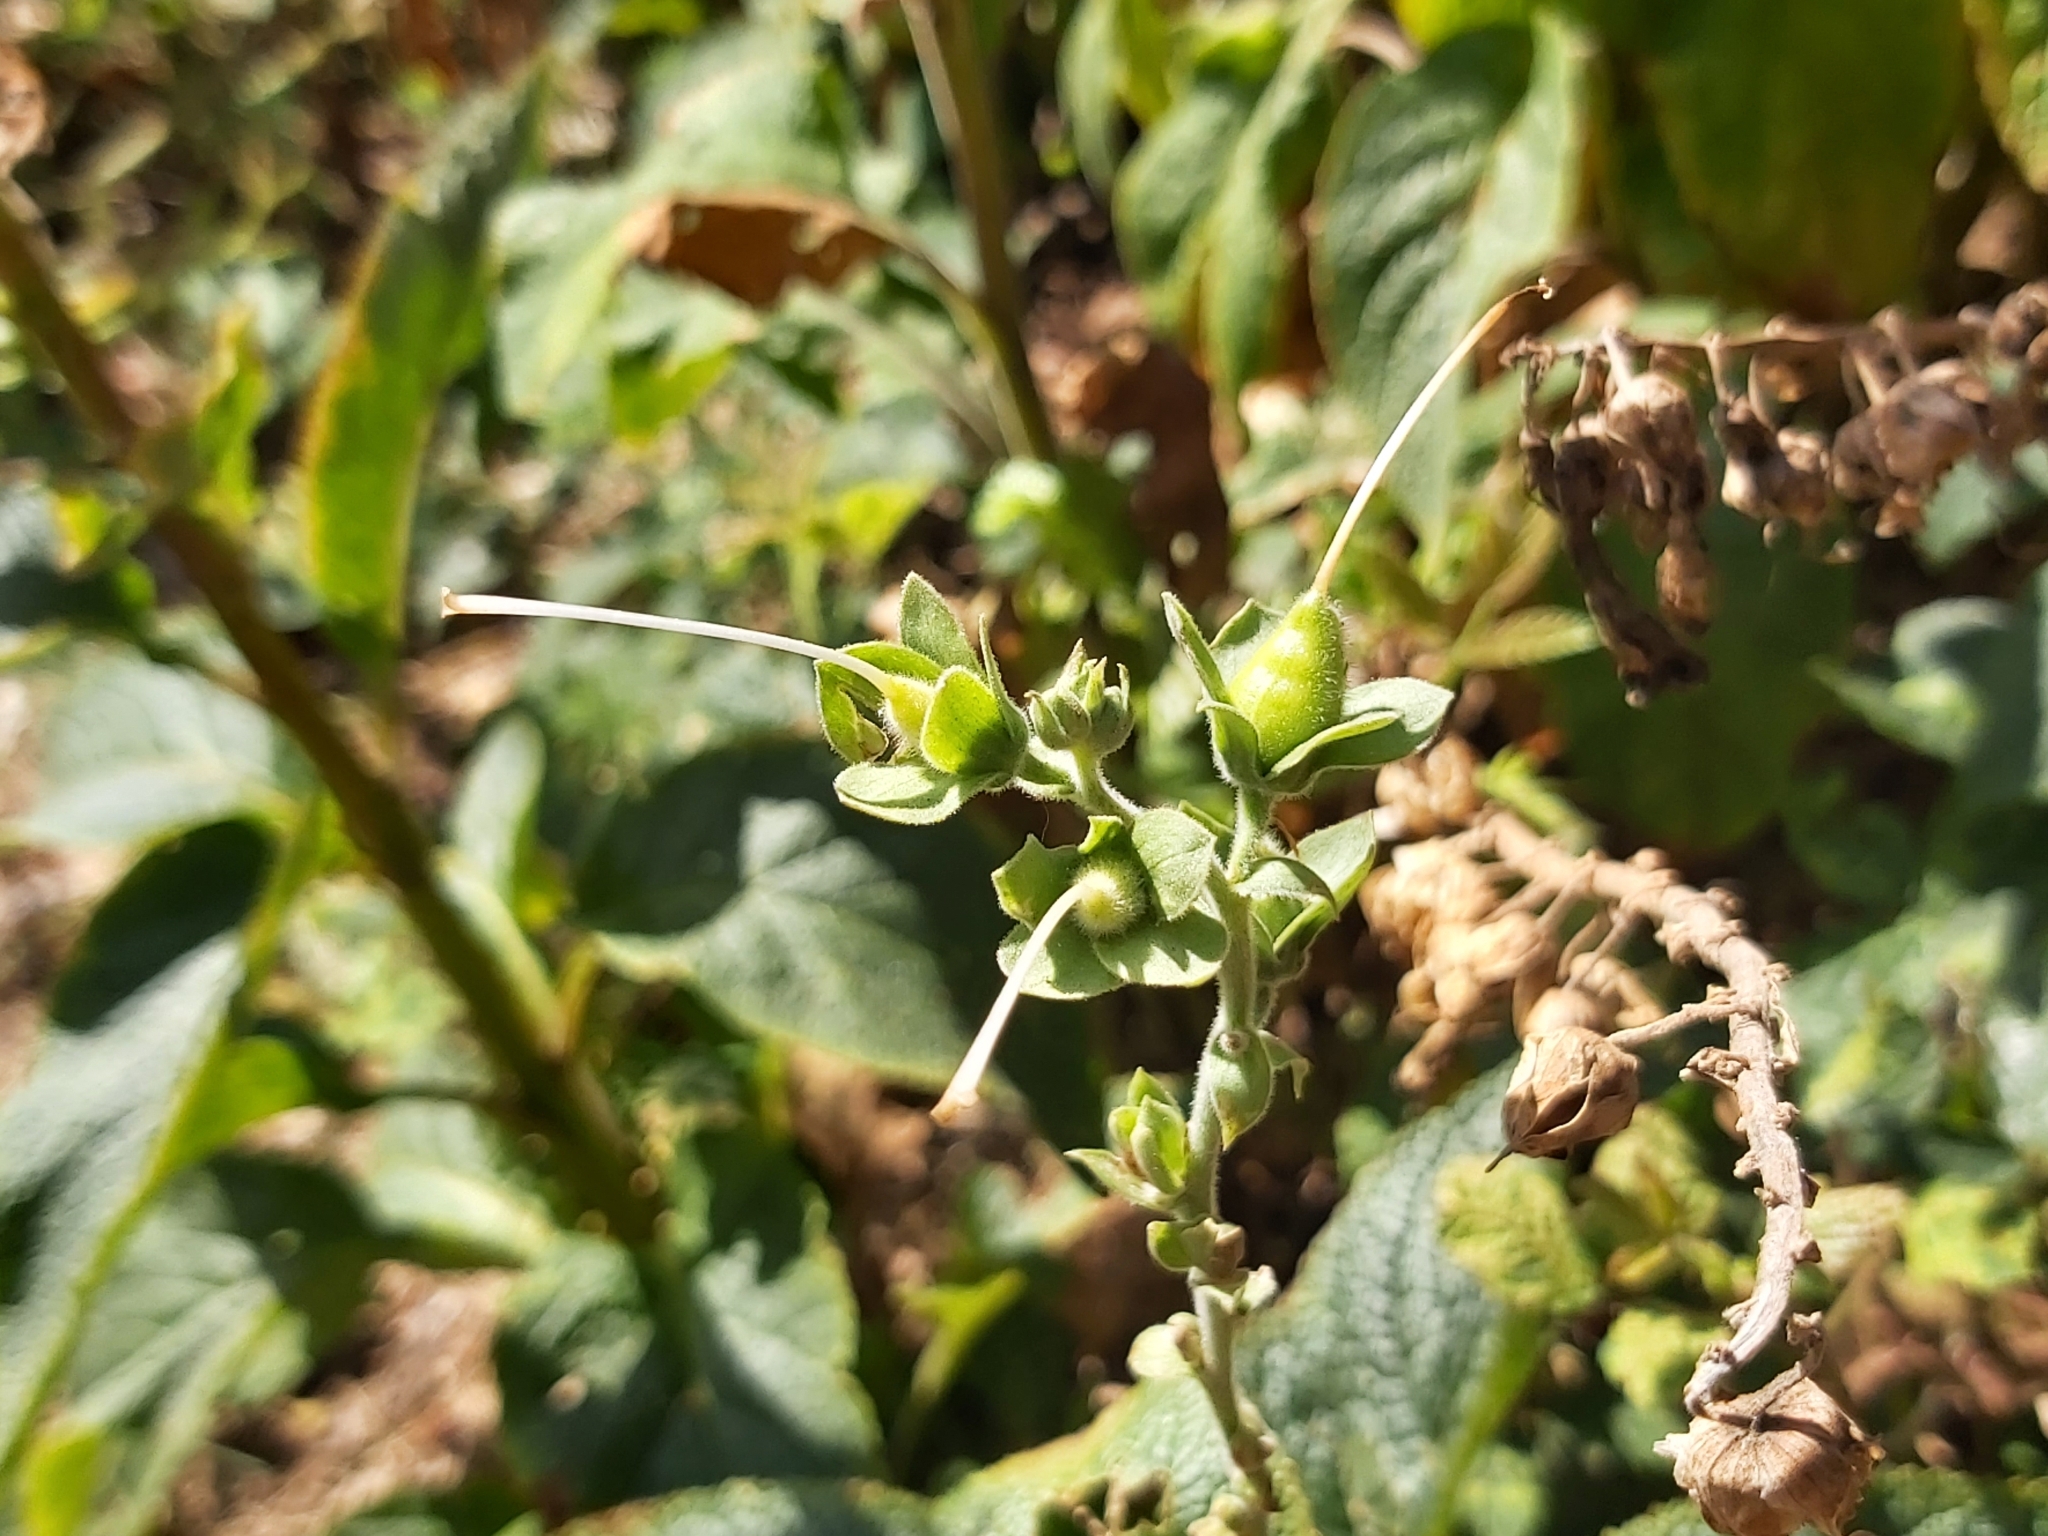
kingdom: Plantae
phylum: Tracheophyta
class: Magnoliopsida
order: Lamiales
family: Plantaginaceae
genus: Digitalis
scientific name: Digitalis purpurea
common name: Foxglove
